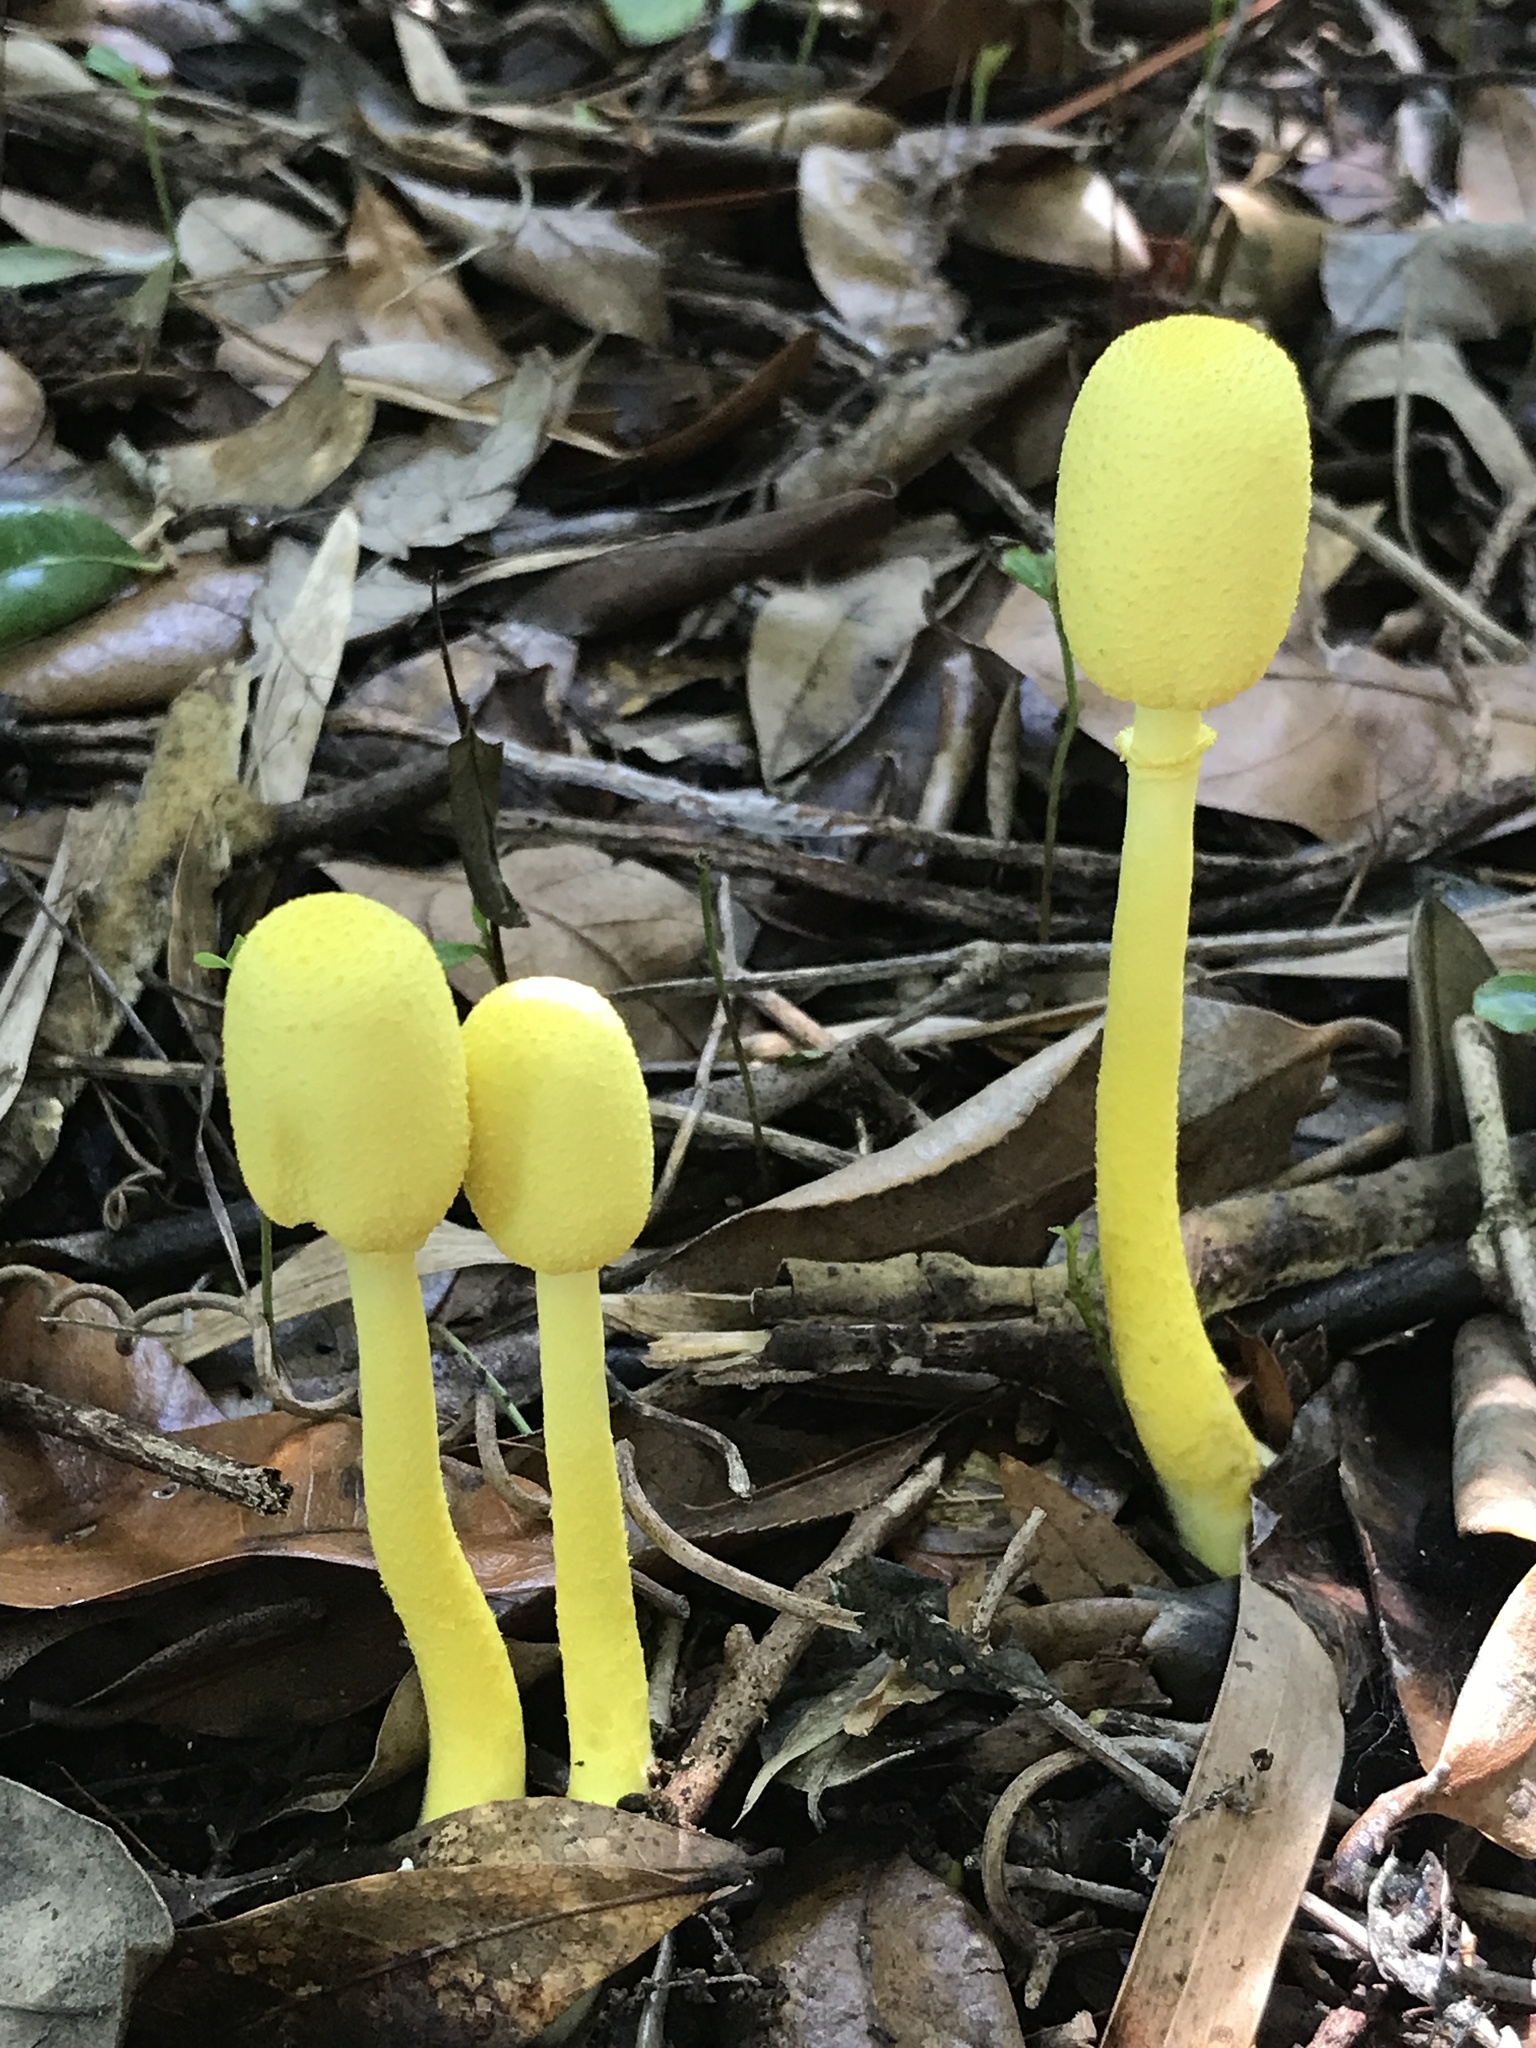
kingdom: Fungi
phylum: Basidiomycota
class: Agaricomycetes
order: Agaricales
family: Agaricaceae
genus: Leucocoprinus
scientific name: Leucocoprinus birnbaumii
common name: Plantpot dapperling
